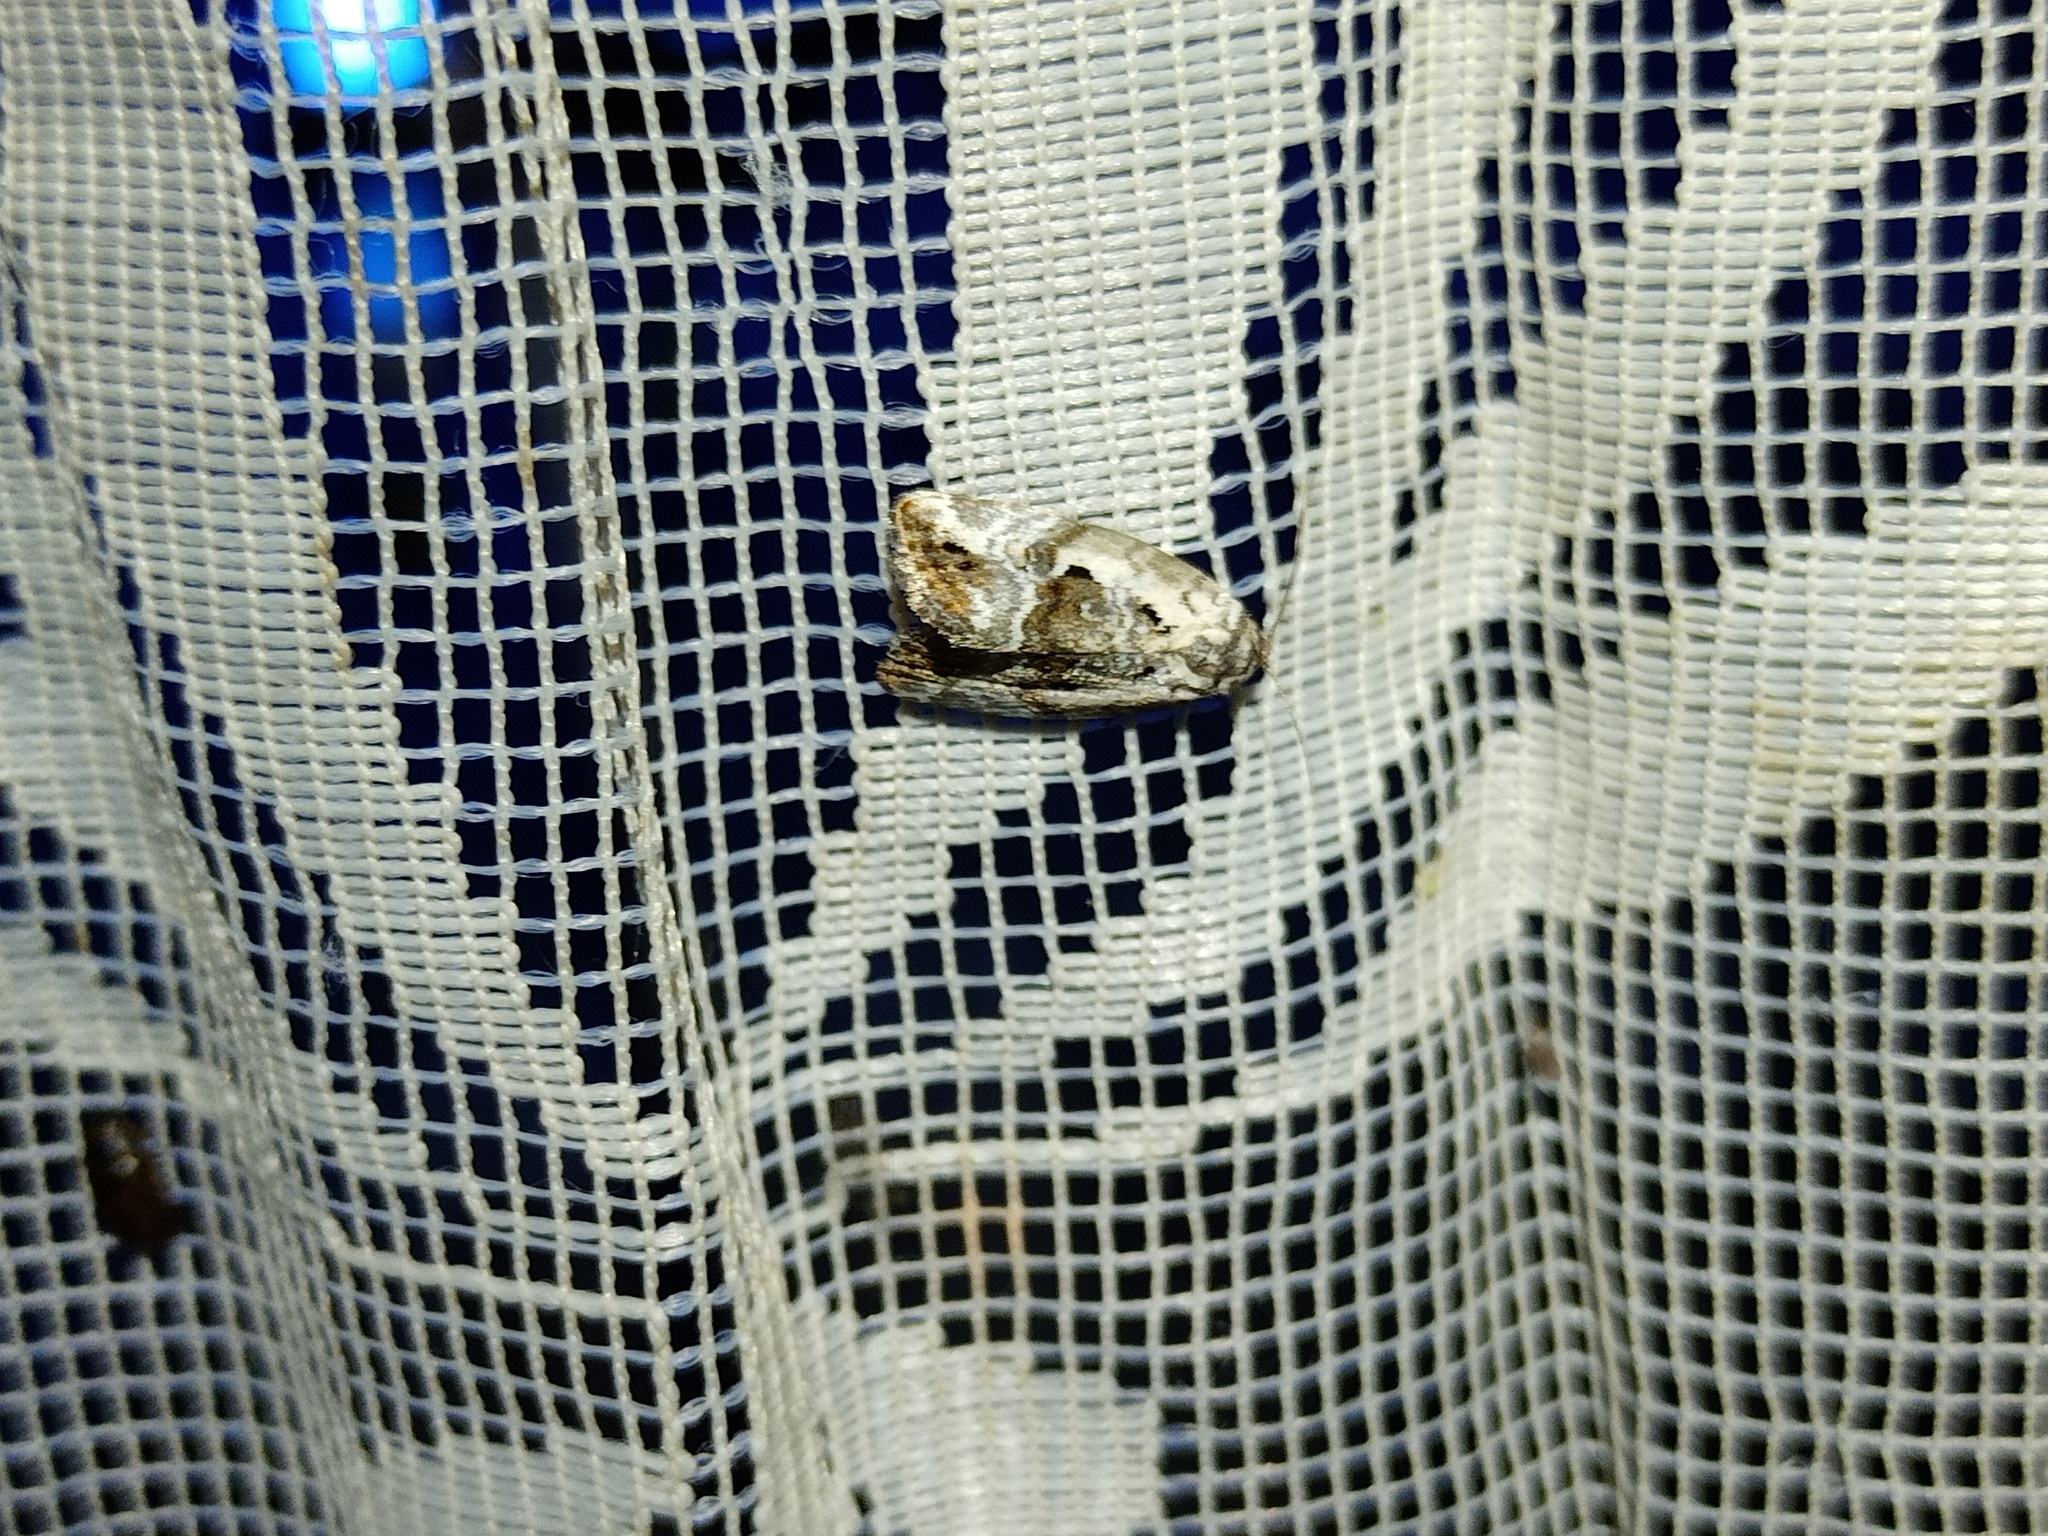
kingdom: Animalia
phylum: Arthropoda
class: Insecta
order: Lepidoptera
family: Noctuidae
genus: Elaphria
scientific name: Elaphria venustula
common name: Rosy marbled
